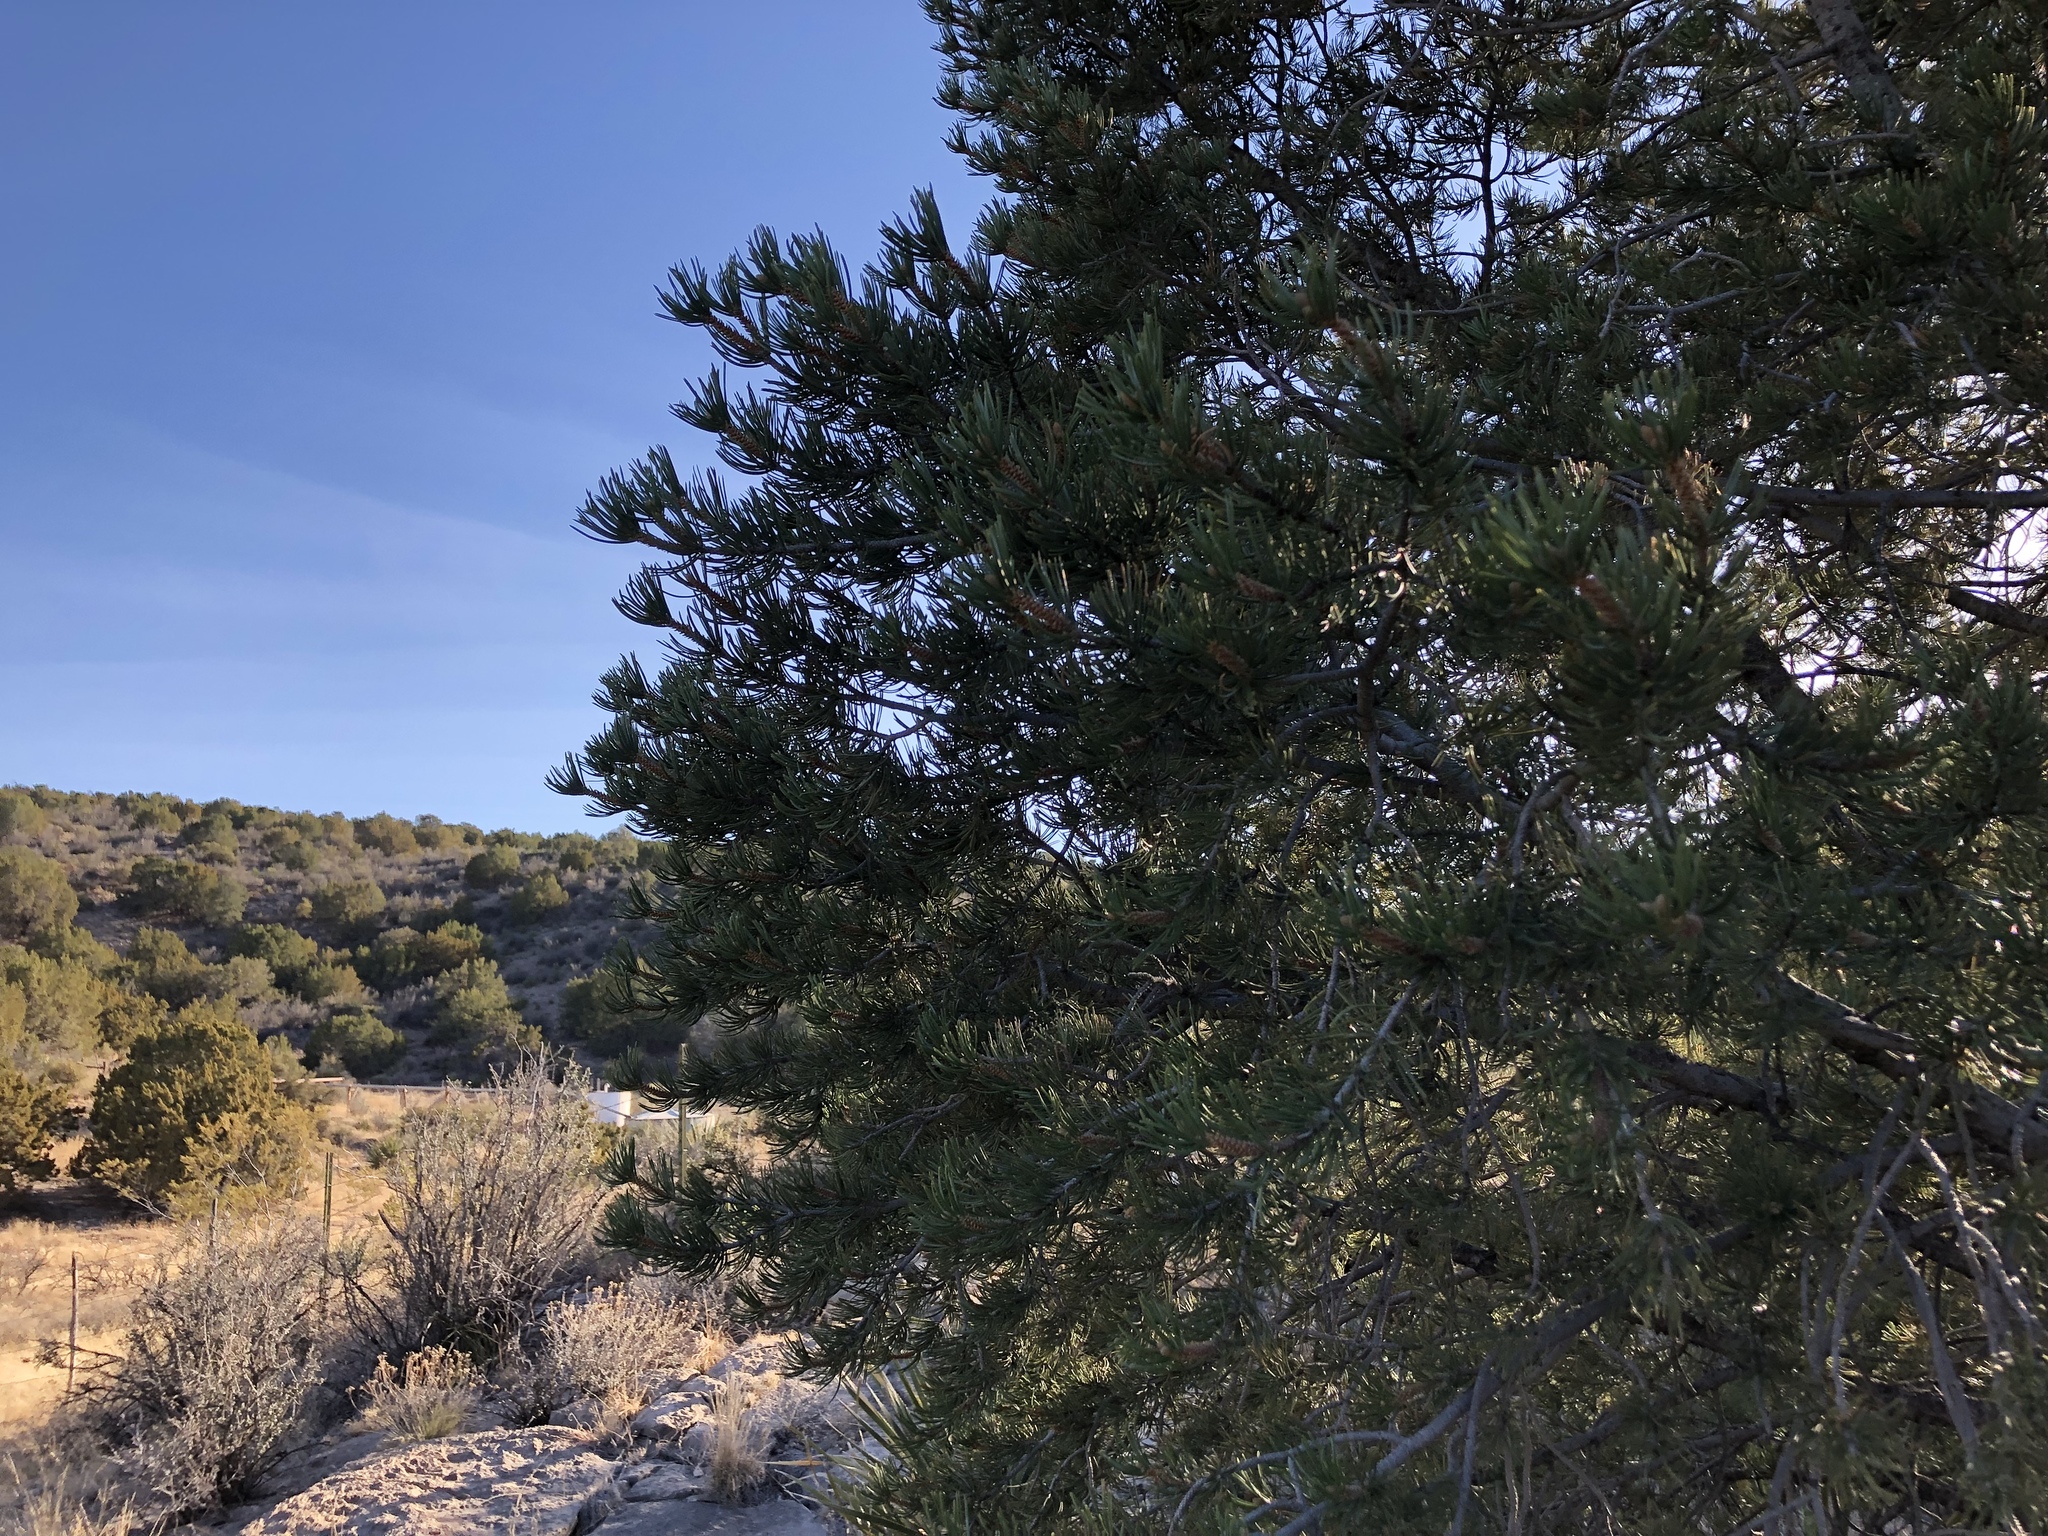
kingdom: Plantae
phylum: Tracheophyta
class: Pinopsida
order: Pinales
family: Pinaceae
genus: Pinus
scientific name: Pinus edulis
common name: Colorado pinyon
